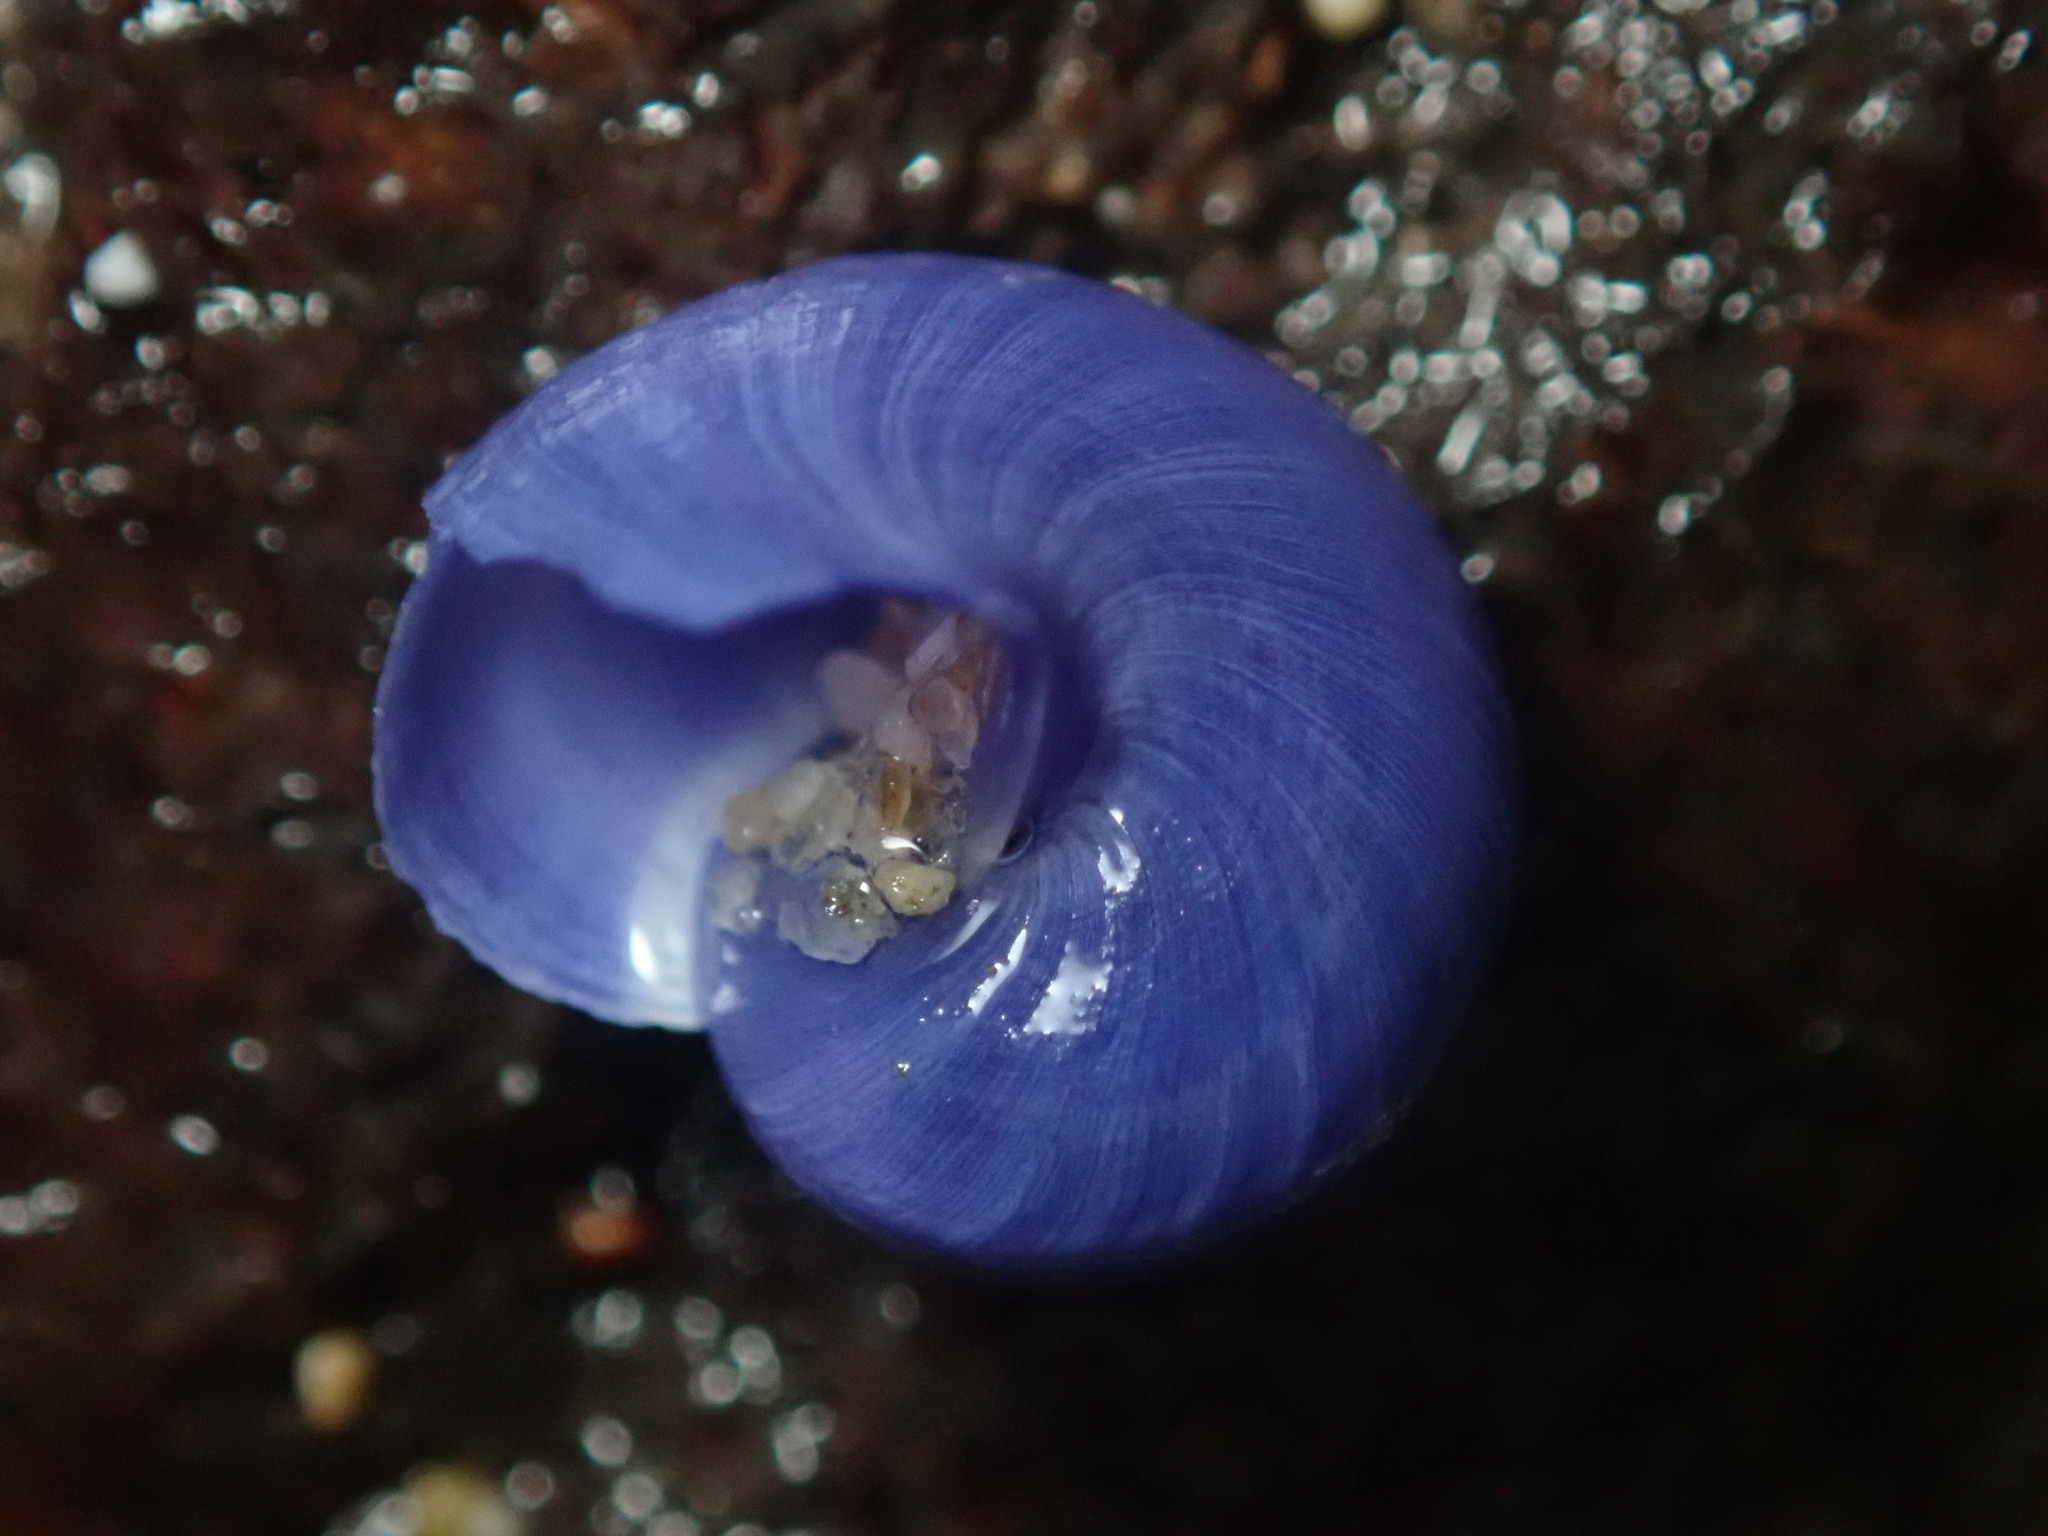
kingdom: Animalia
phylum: Mollusca
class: Gastropoda
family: Epitoniidae
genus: Janthina
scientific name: Janthina umbilicata
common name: Elongate janthina
